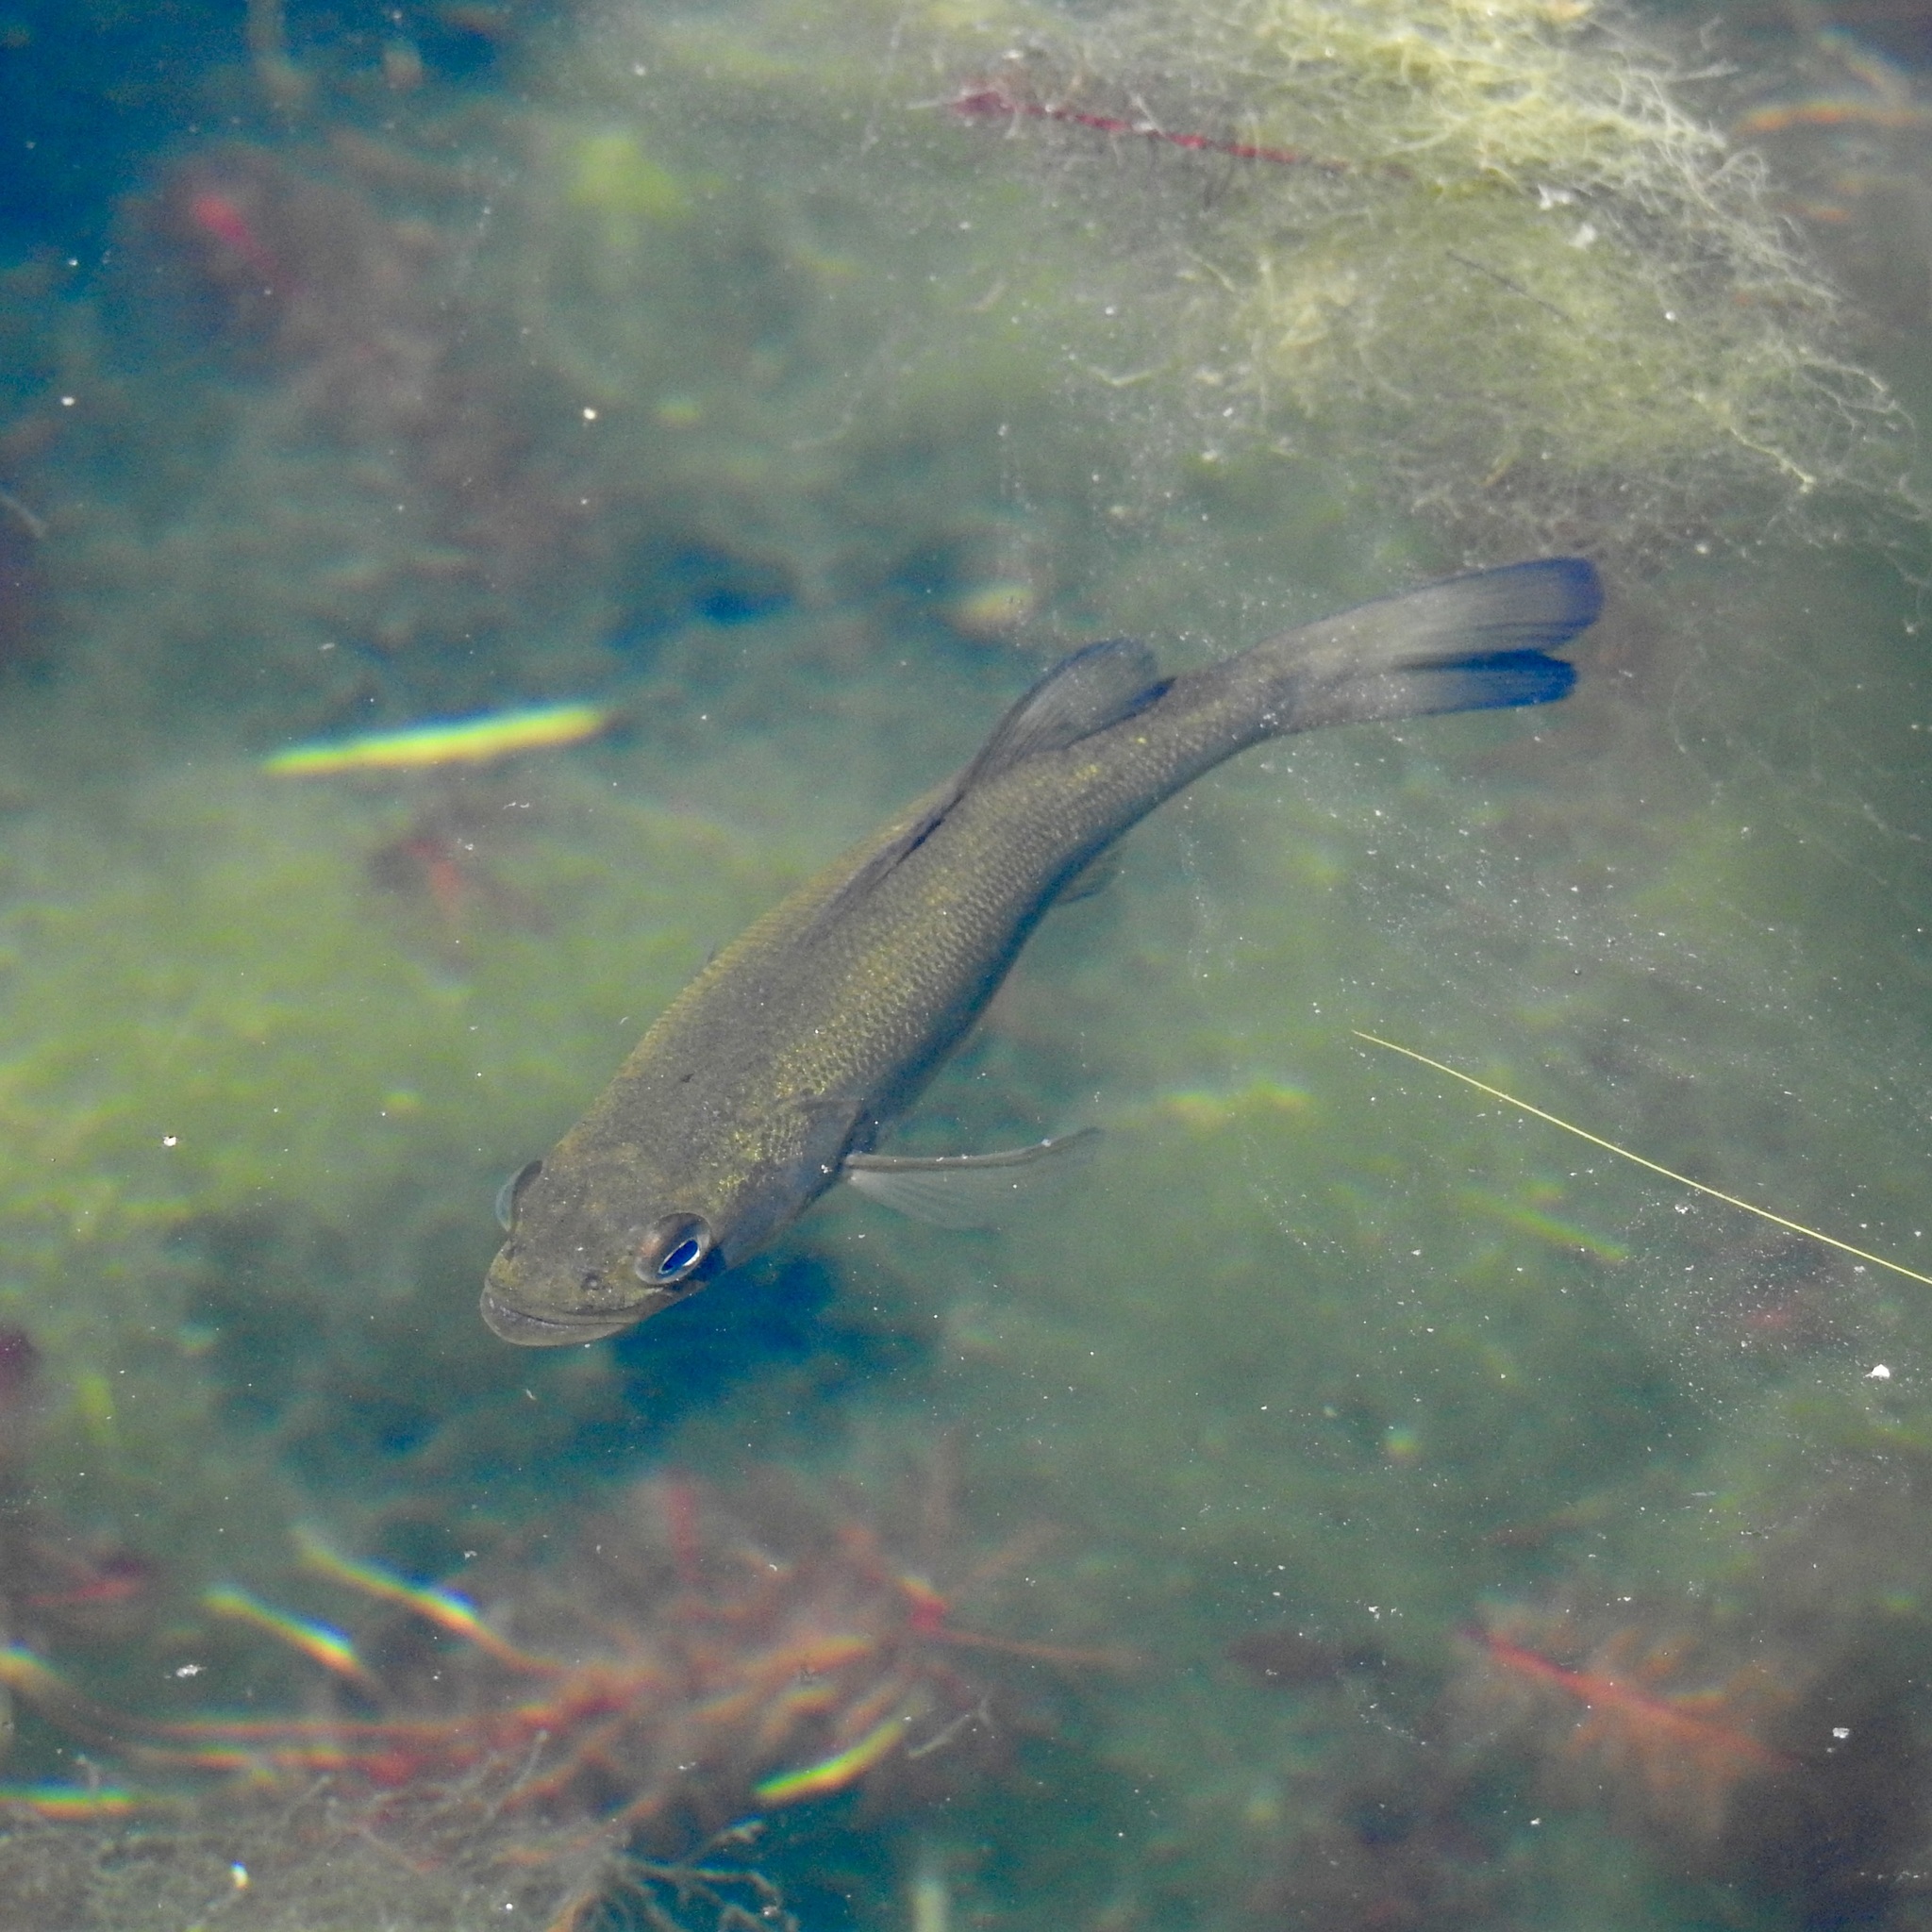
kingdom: Animalia
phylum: Chordata
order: Perciformes
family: Centrarchidae
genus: Micropterus
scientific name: Micropterus dolomieu
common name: Smallmouth bass
